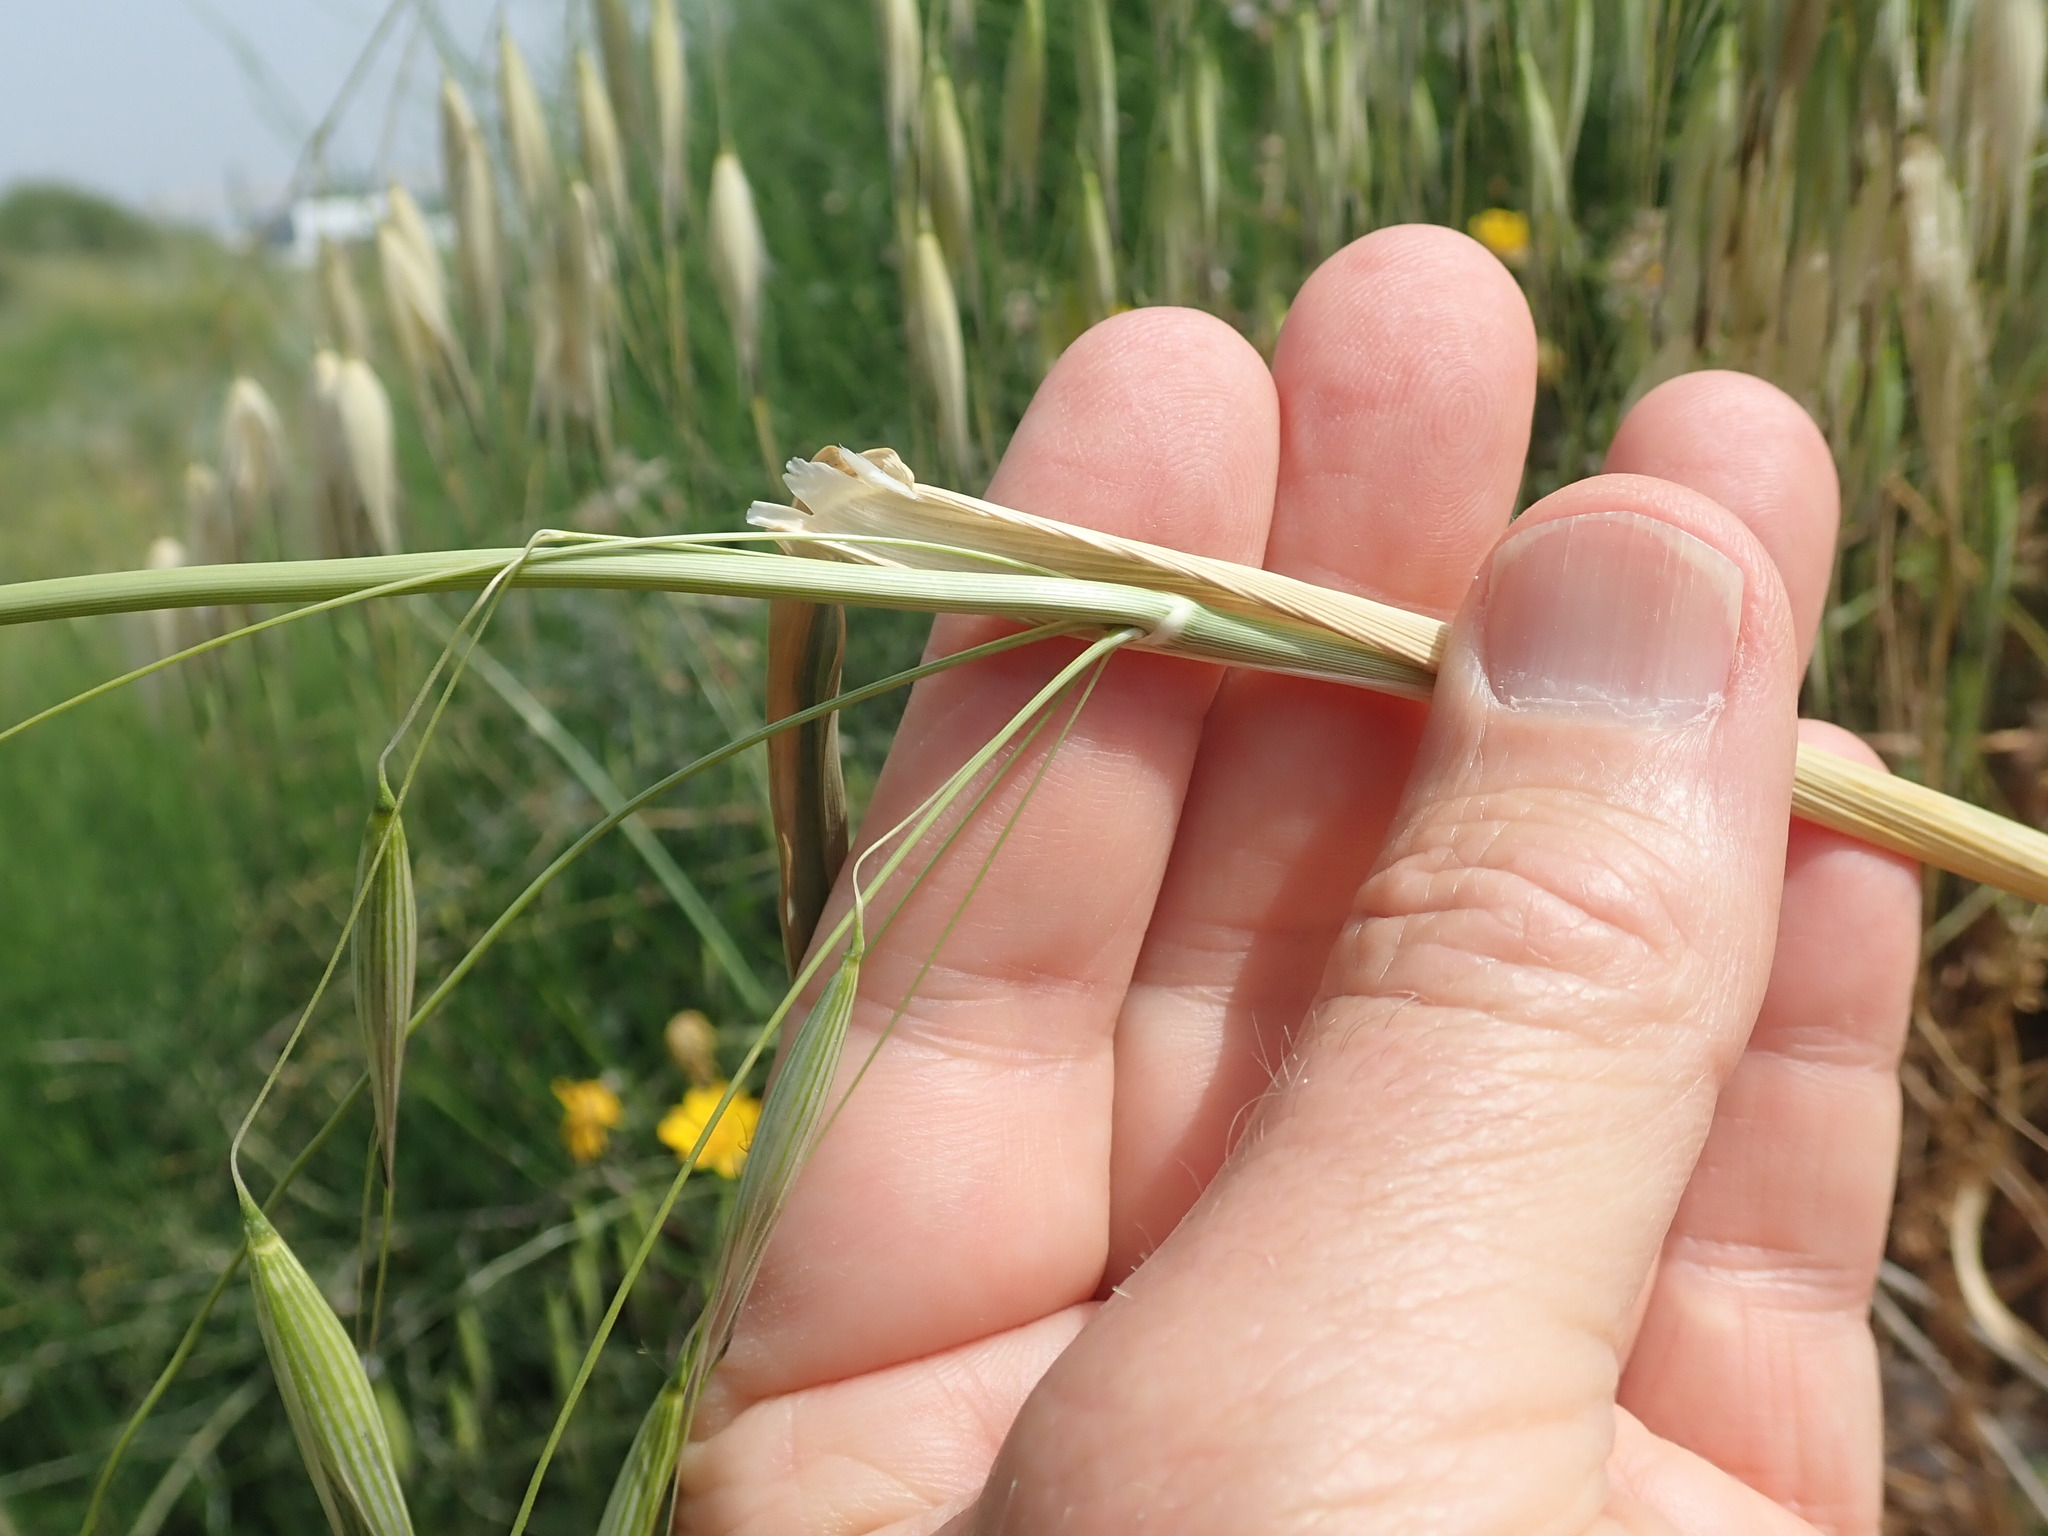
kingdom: Plantae
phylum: Tracheophyta
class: Liliopsida
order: Poales
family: Poaceae
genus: Avena
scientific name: Avena sterilis
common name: Animated oat
